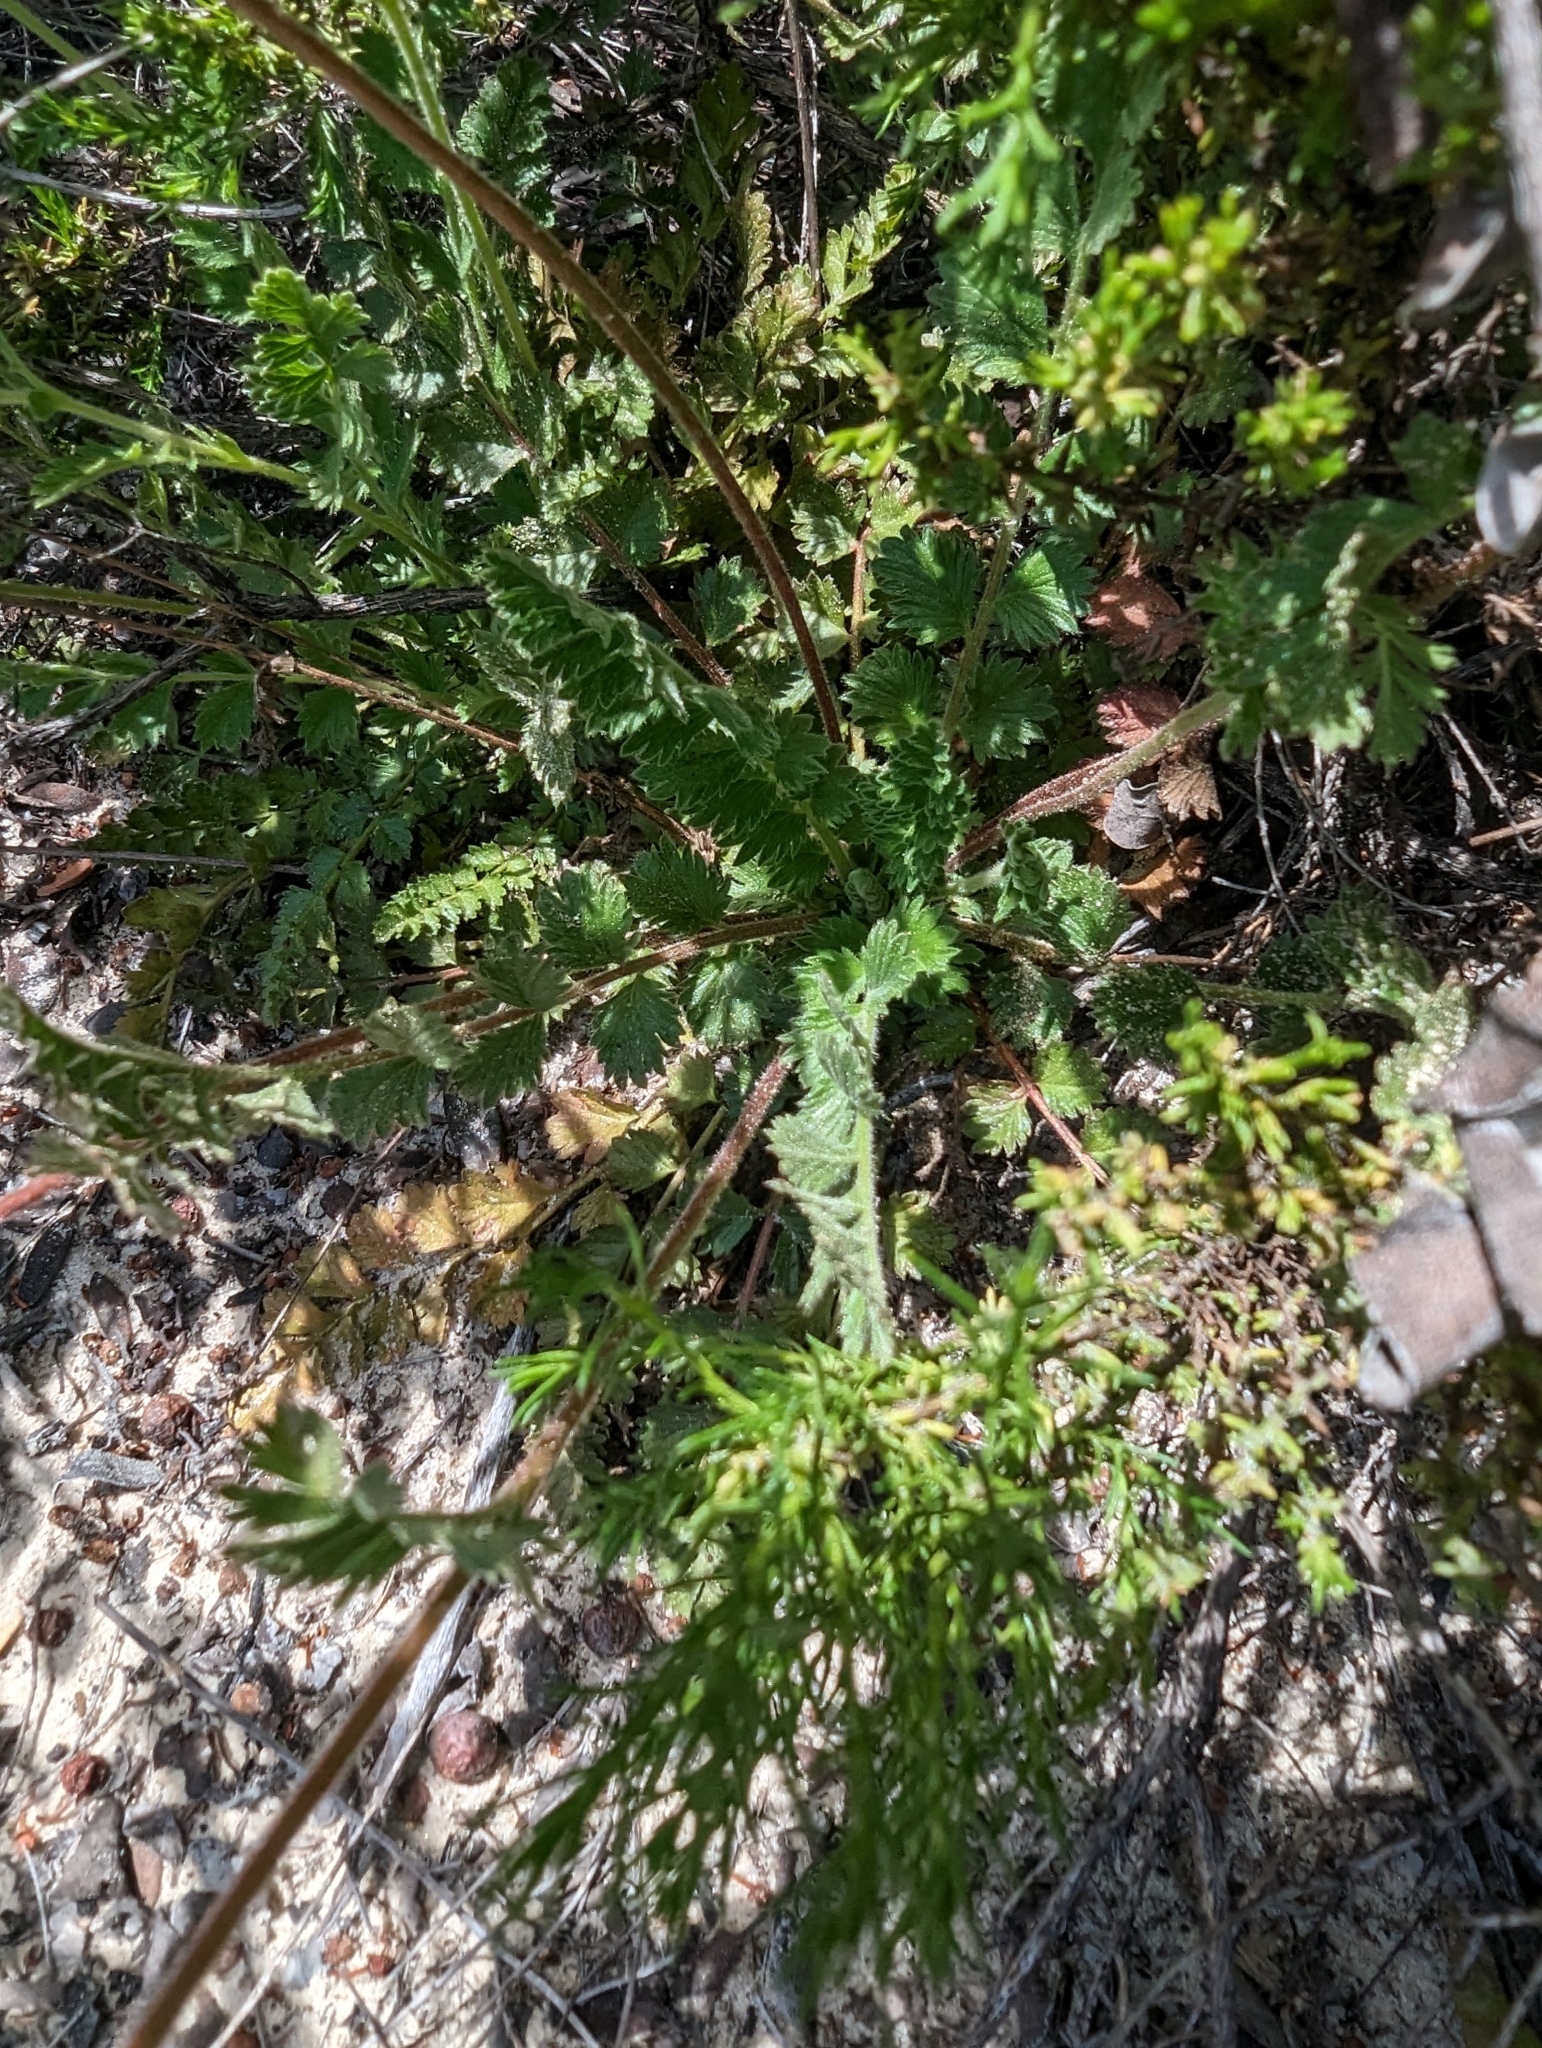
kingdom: Plantae
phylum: Tracheophyta
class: Magnoliopsida
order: Rosales
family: Rosaceae
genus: Potentilla
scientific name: Potentilla
